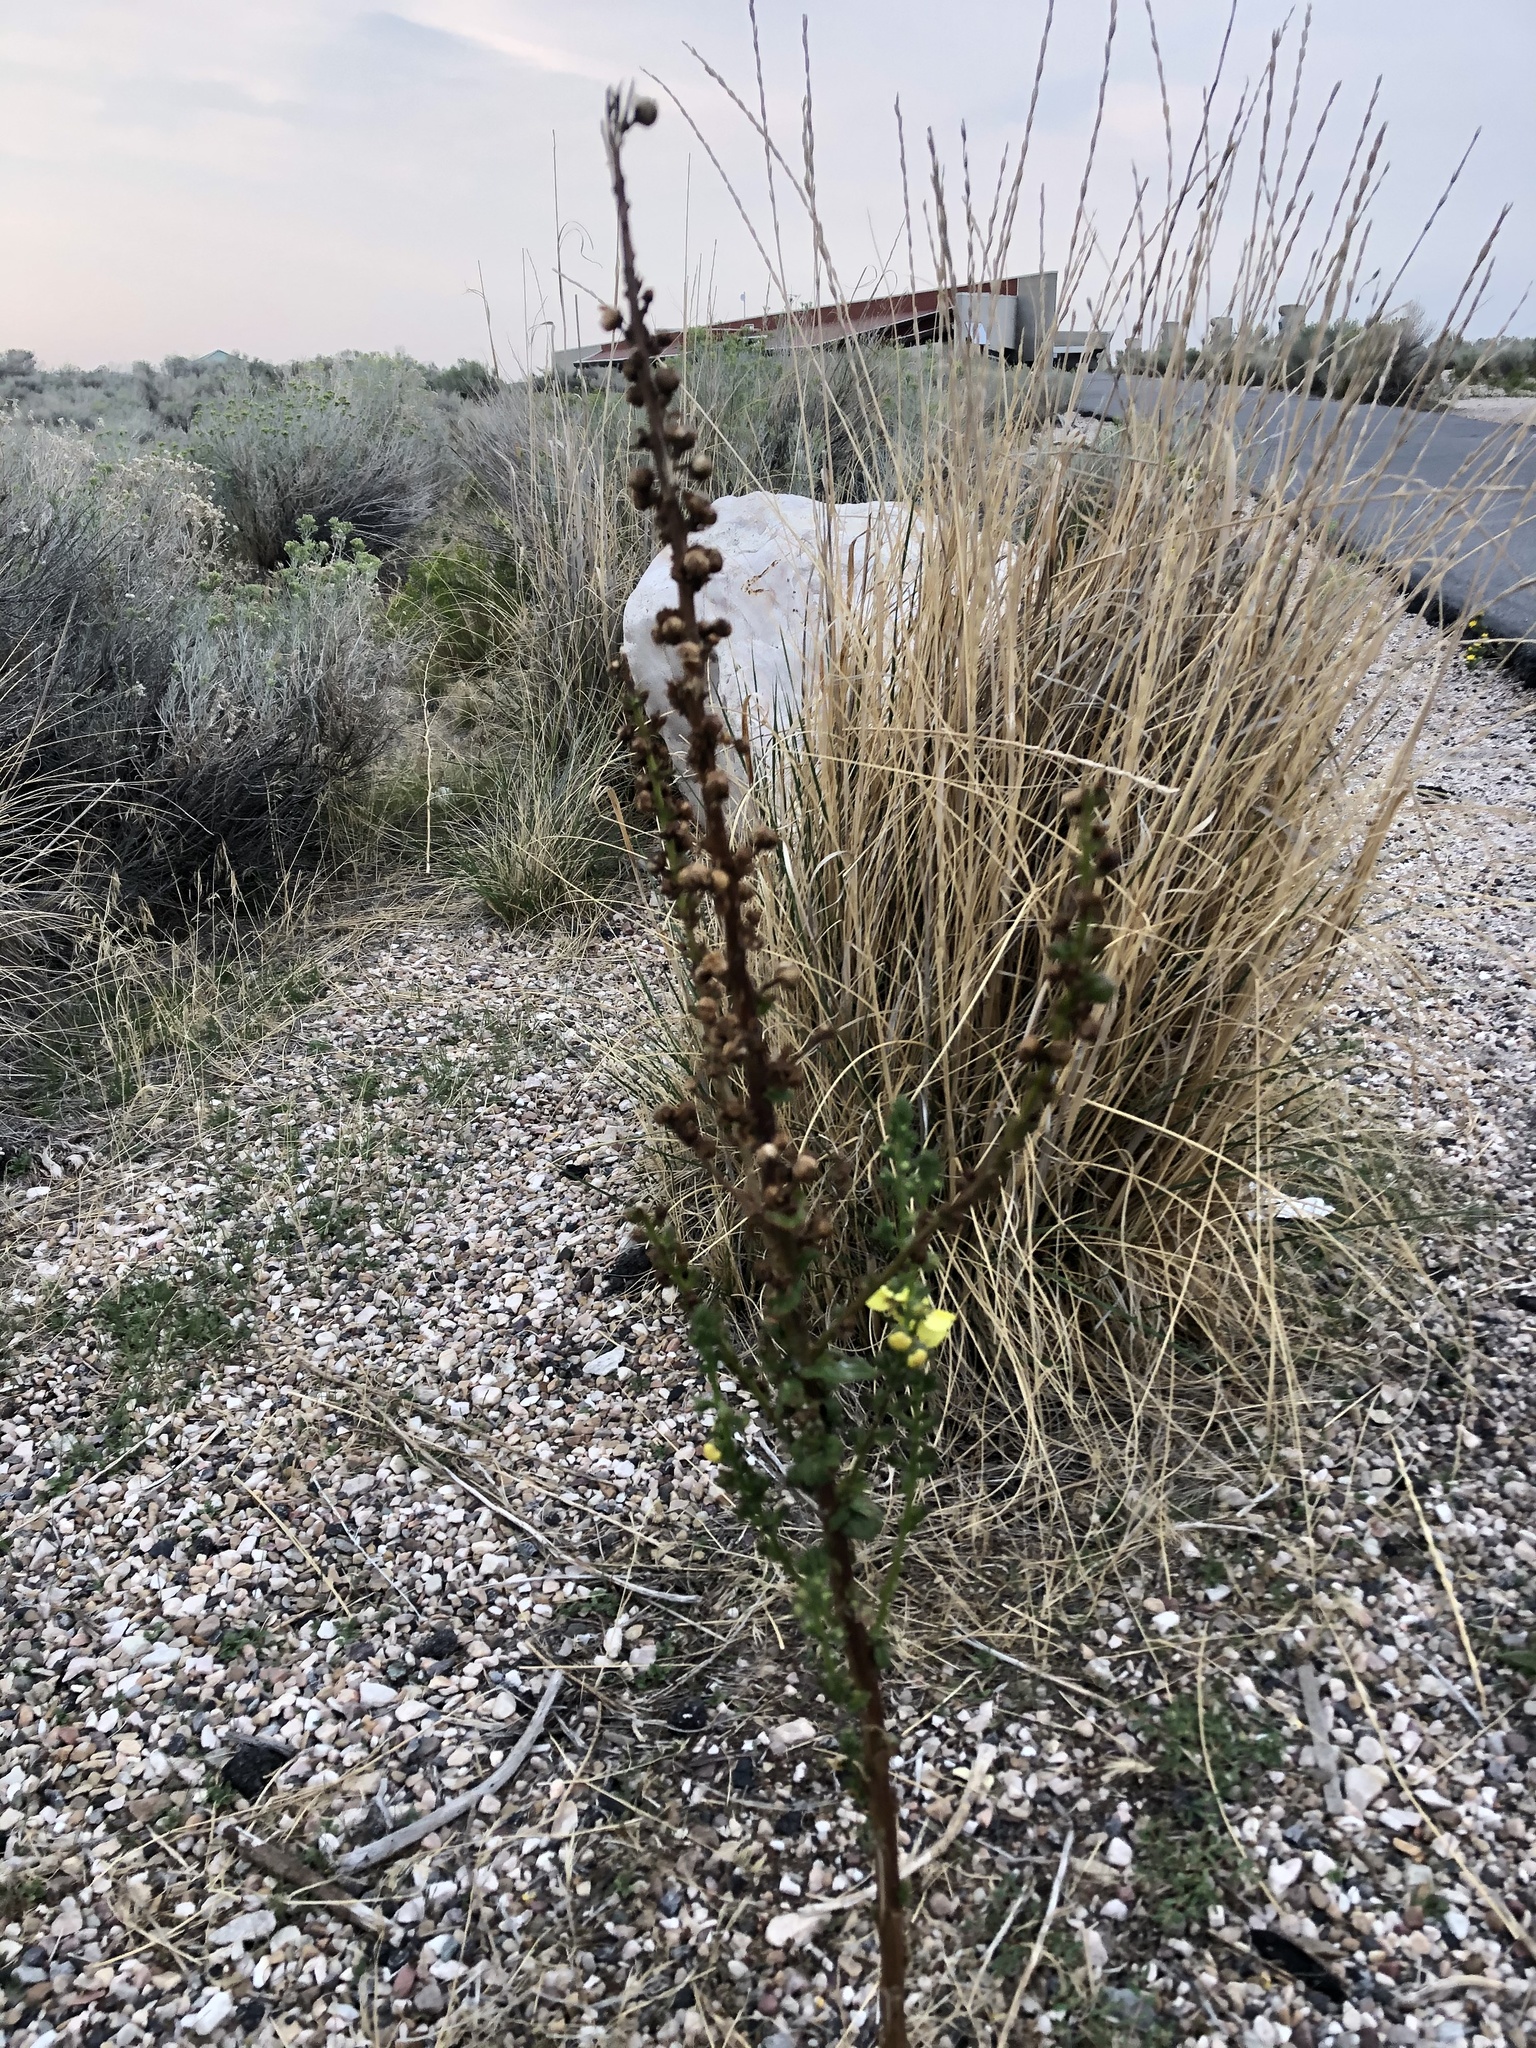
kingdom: Plantae
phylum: Tracheophyta
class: Magnoliopsida
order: Lamiales
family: Scrophulariaceae
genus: Verbascum
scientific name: Verbascum virgatum
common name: Twiggy mullein
